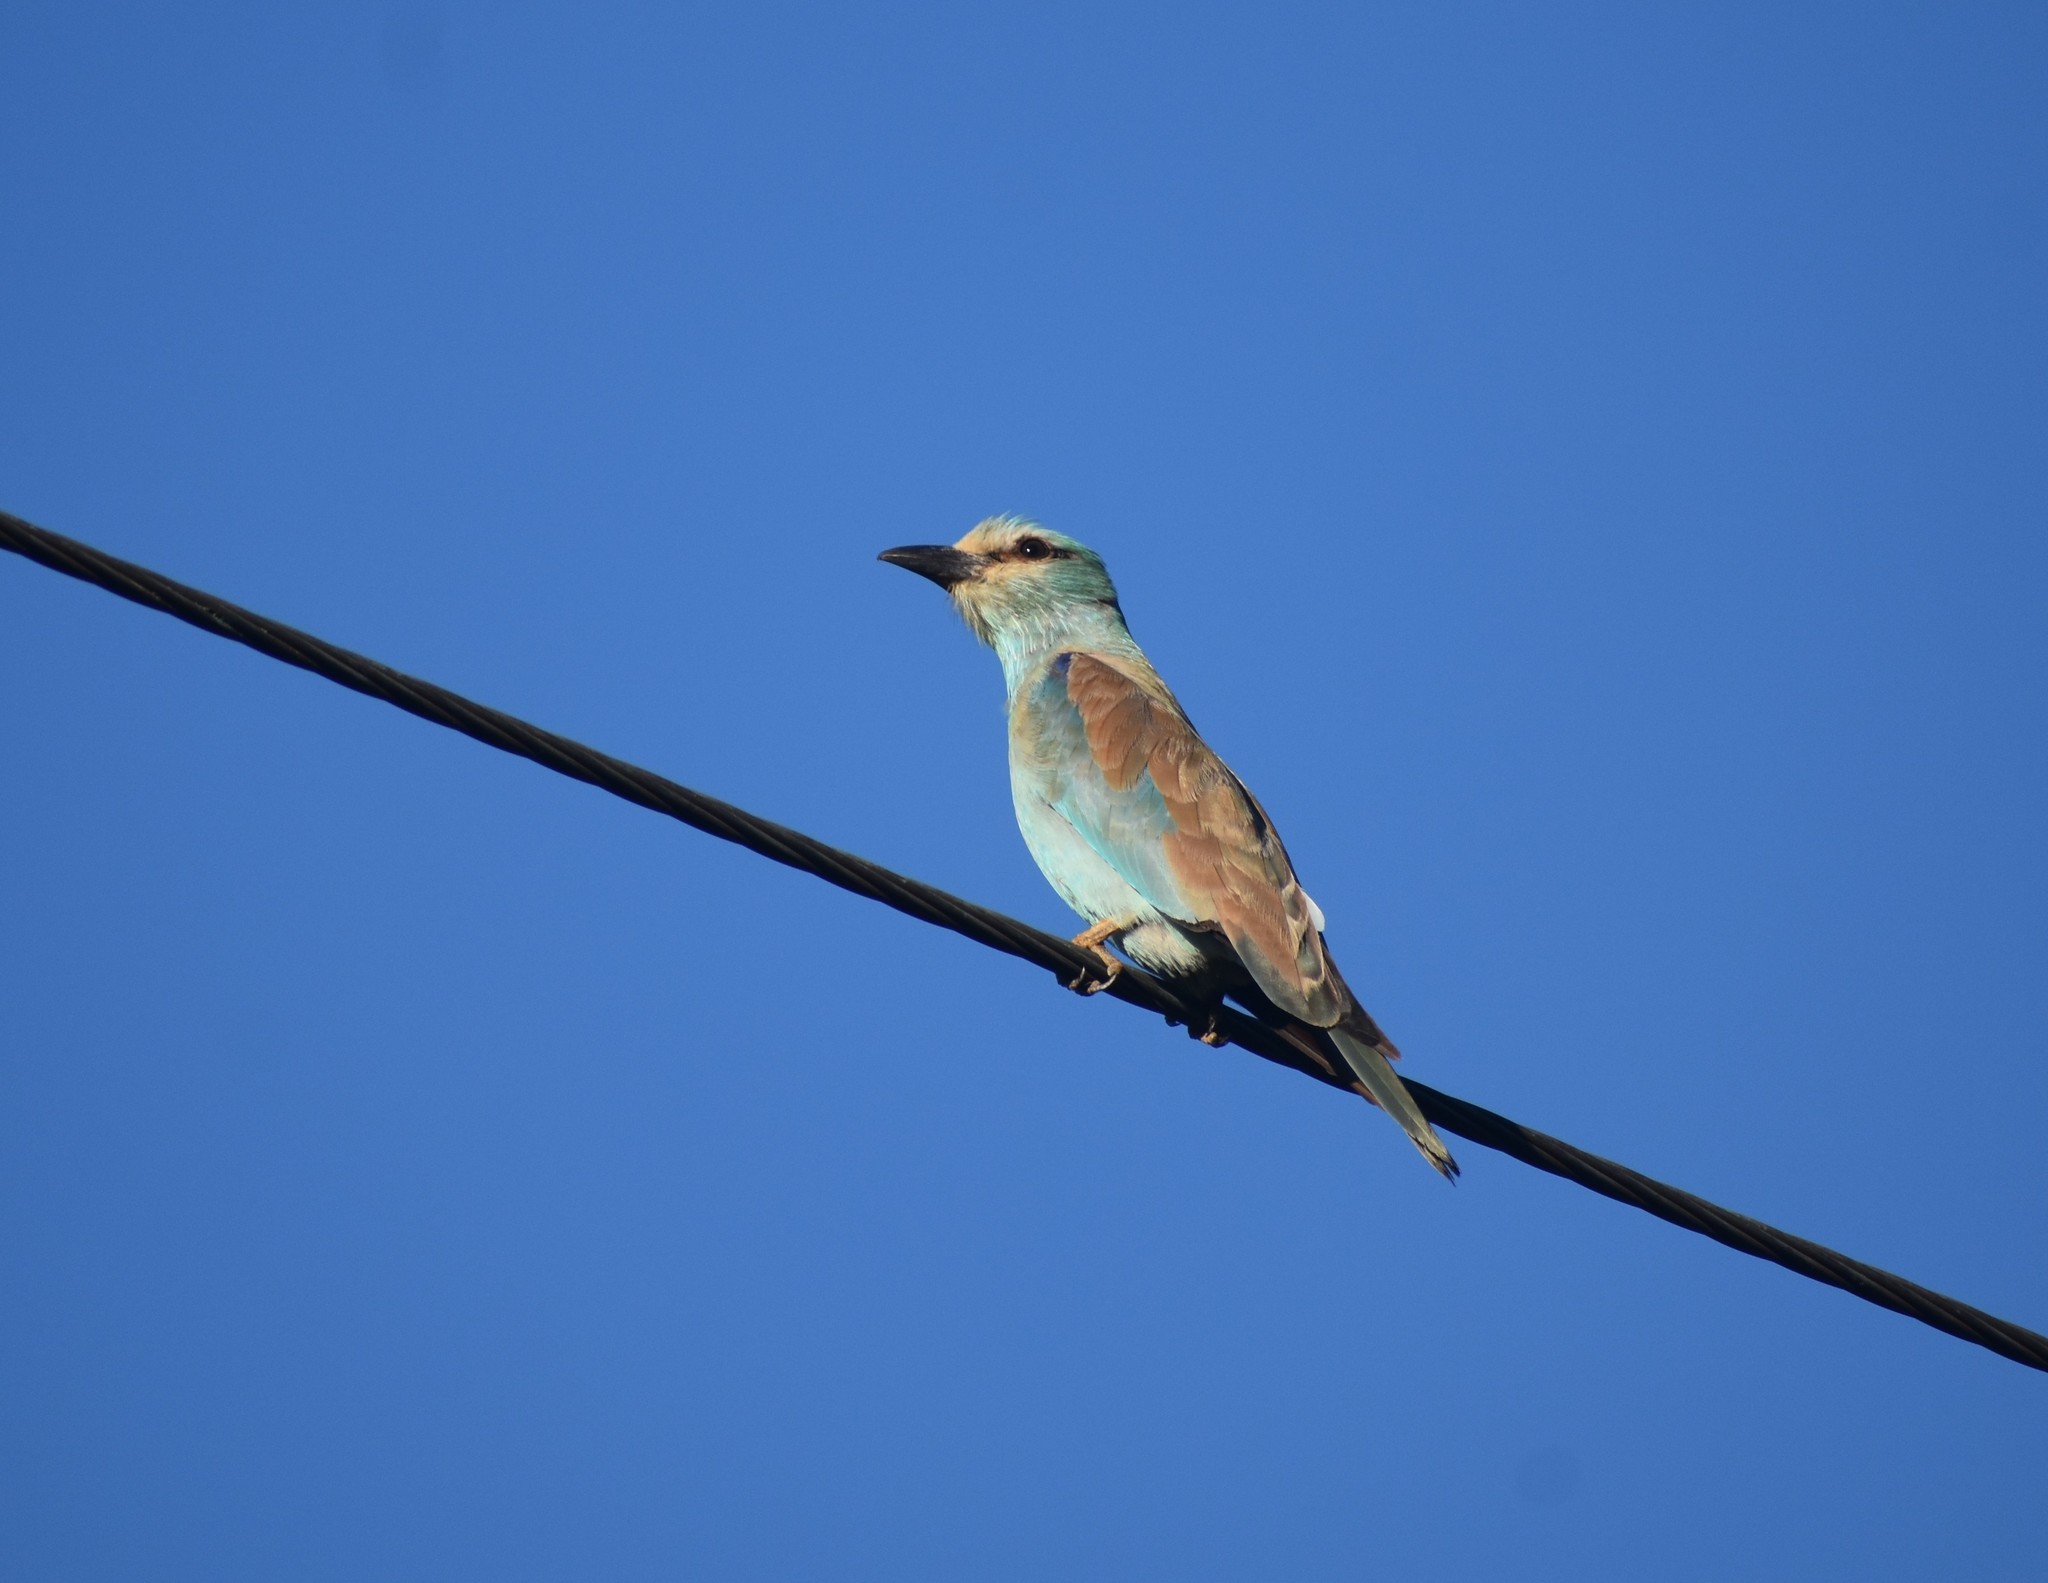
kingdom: Animalia
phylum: Chordata
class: Aves
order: Coraciiformes
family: Coraciidae
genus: Coracias
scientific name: Coracias garrulus
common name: European roller
